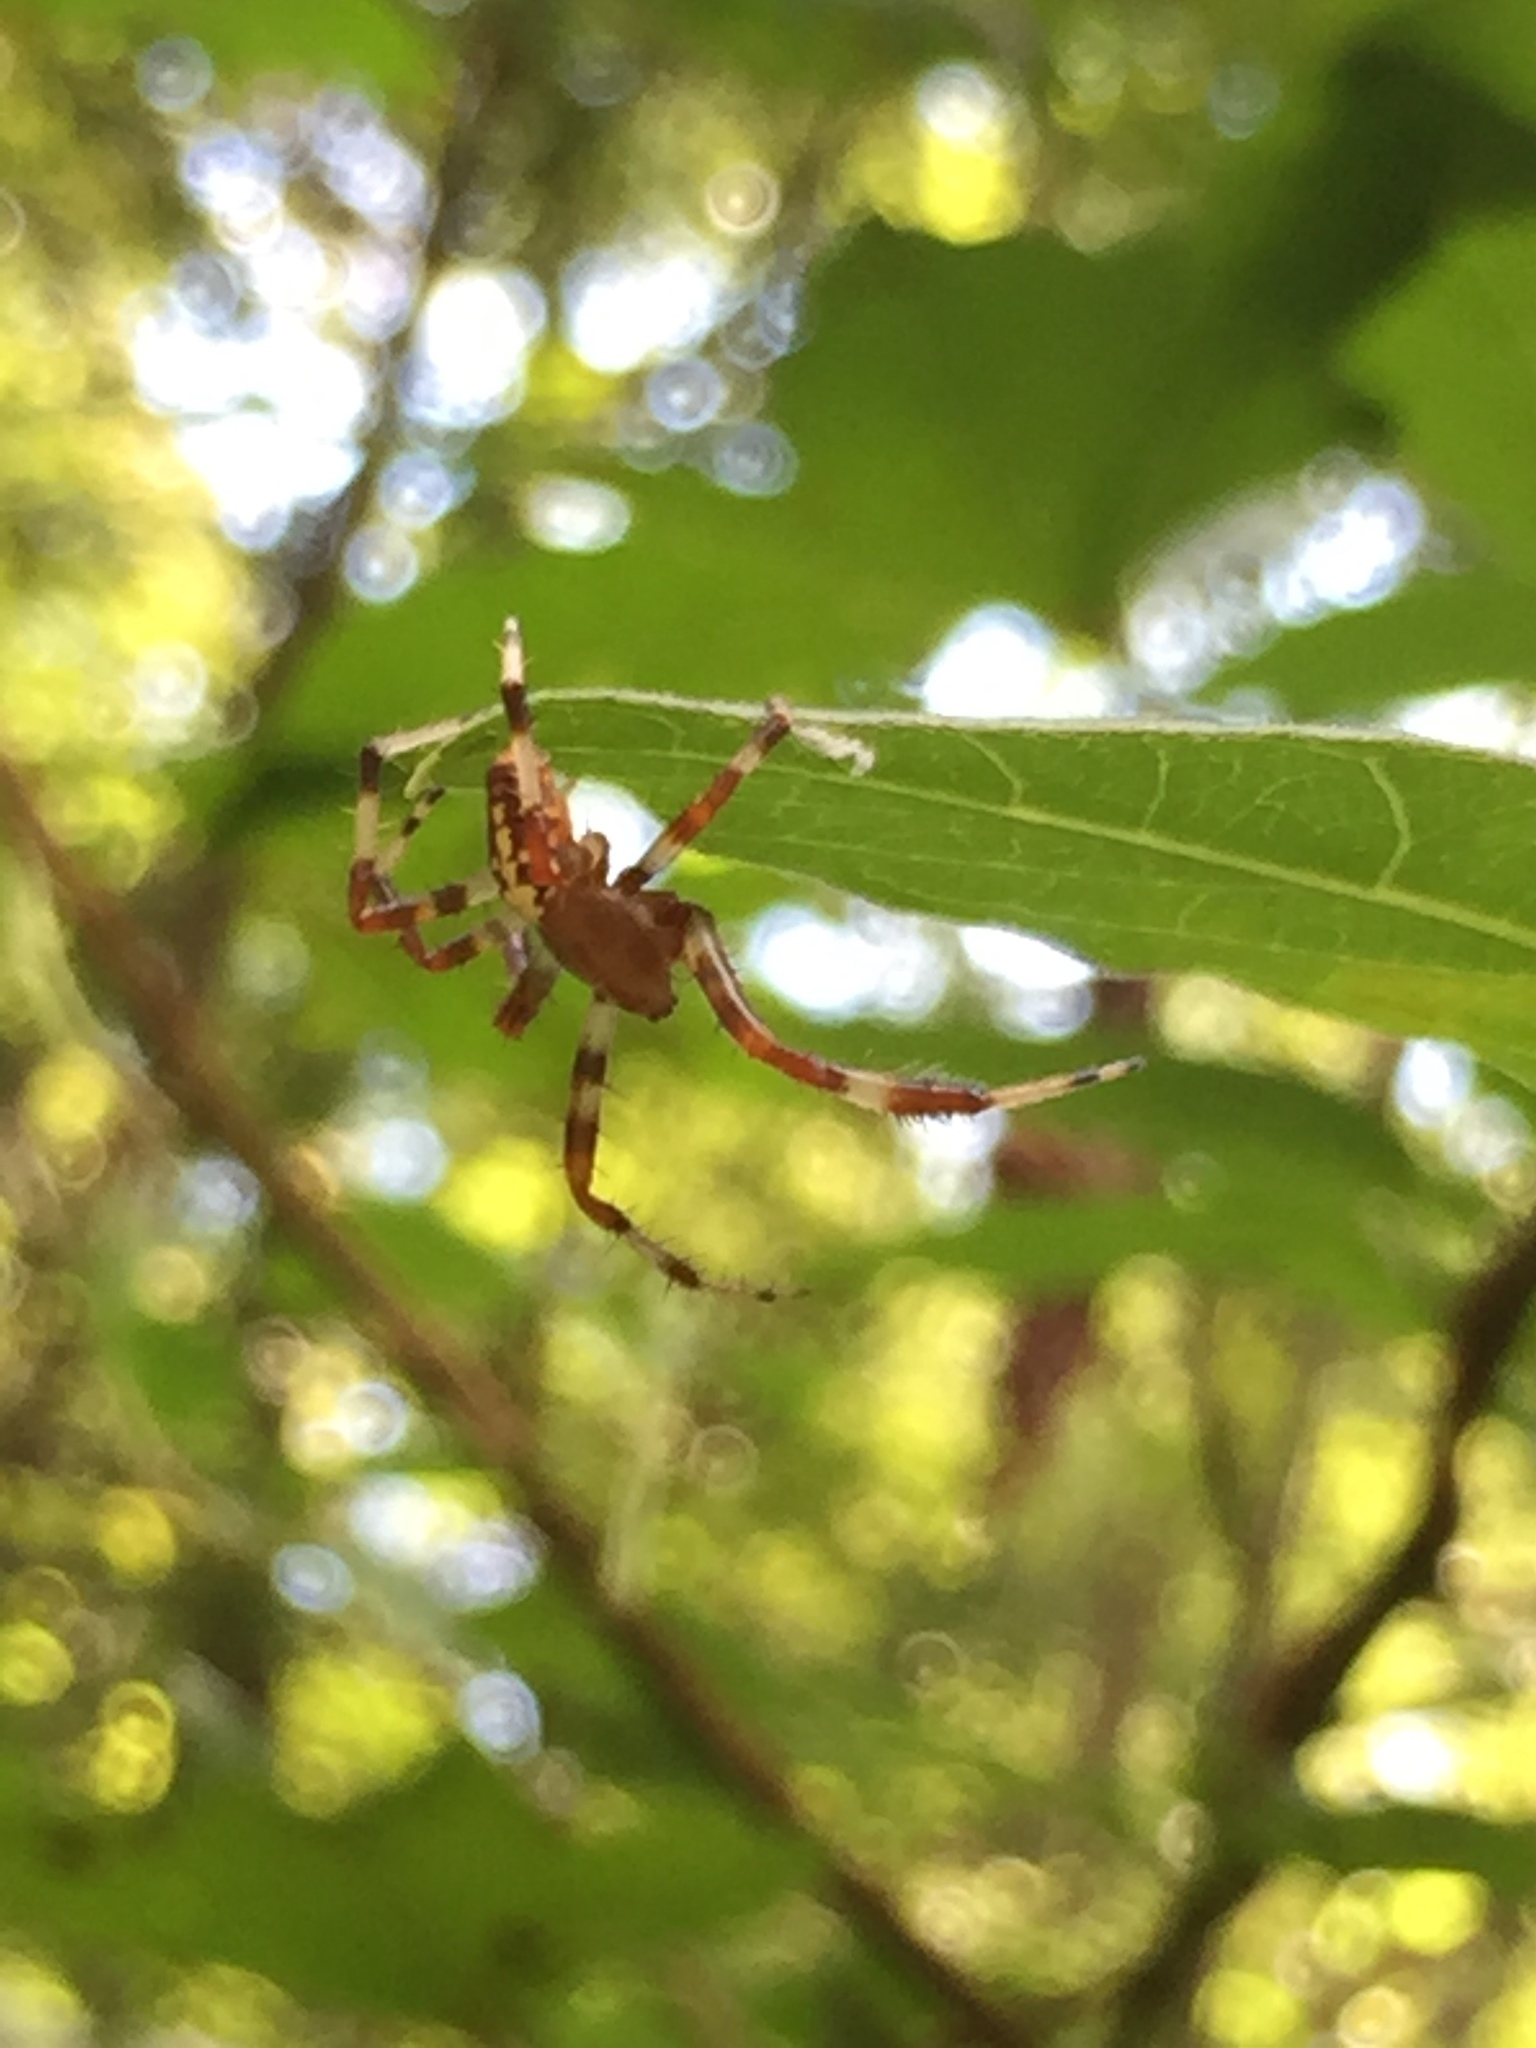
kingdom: Animalia
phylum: Arthropoda
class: Arachnida
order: Araneae
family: Araneidae
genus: Araneus
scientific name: Araneus marmoreus
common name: Marbled orbweaver
